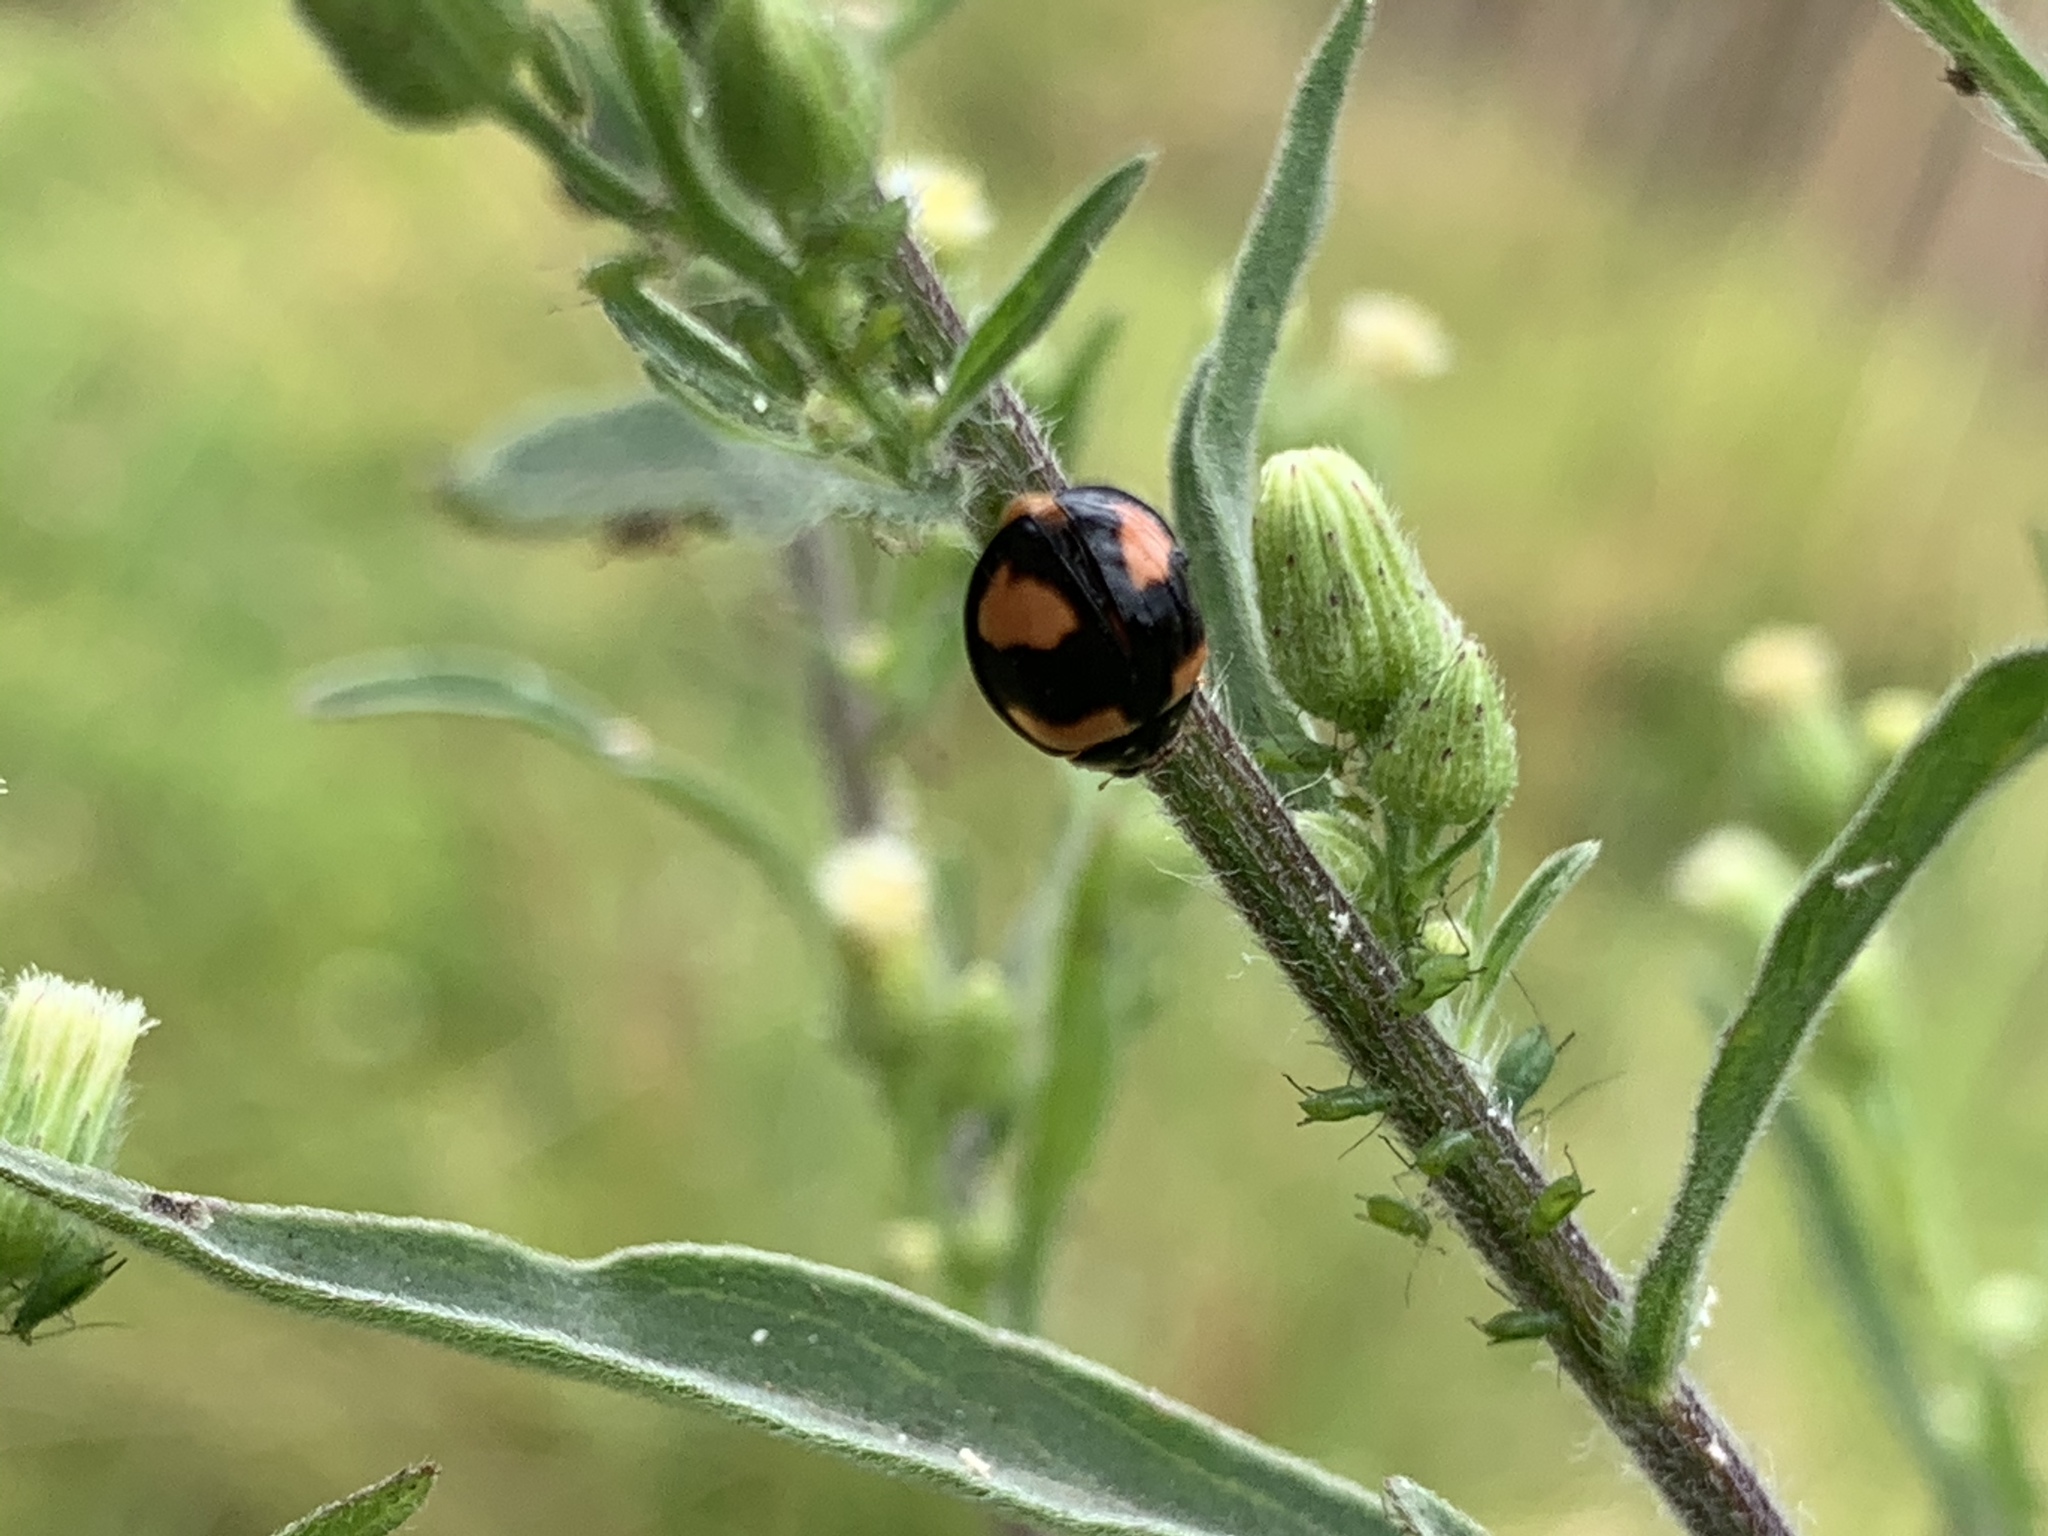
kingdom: Animalia
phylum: Arthropoda
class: Insecta
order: Coleoptera
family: Coccinellidae
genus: Cheilomenes
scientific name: Cheilomenes sexmaculata
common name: Ladybird beetle
